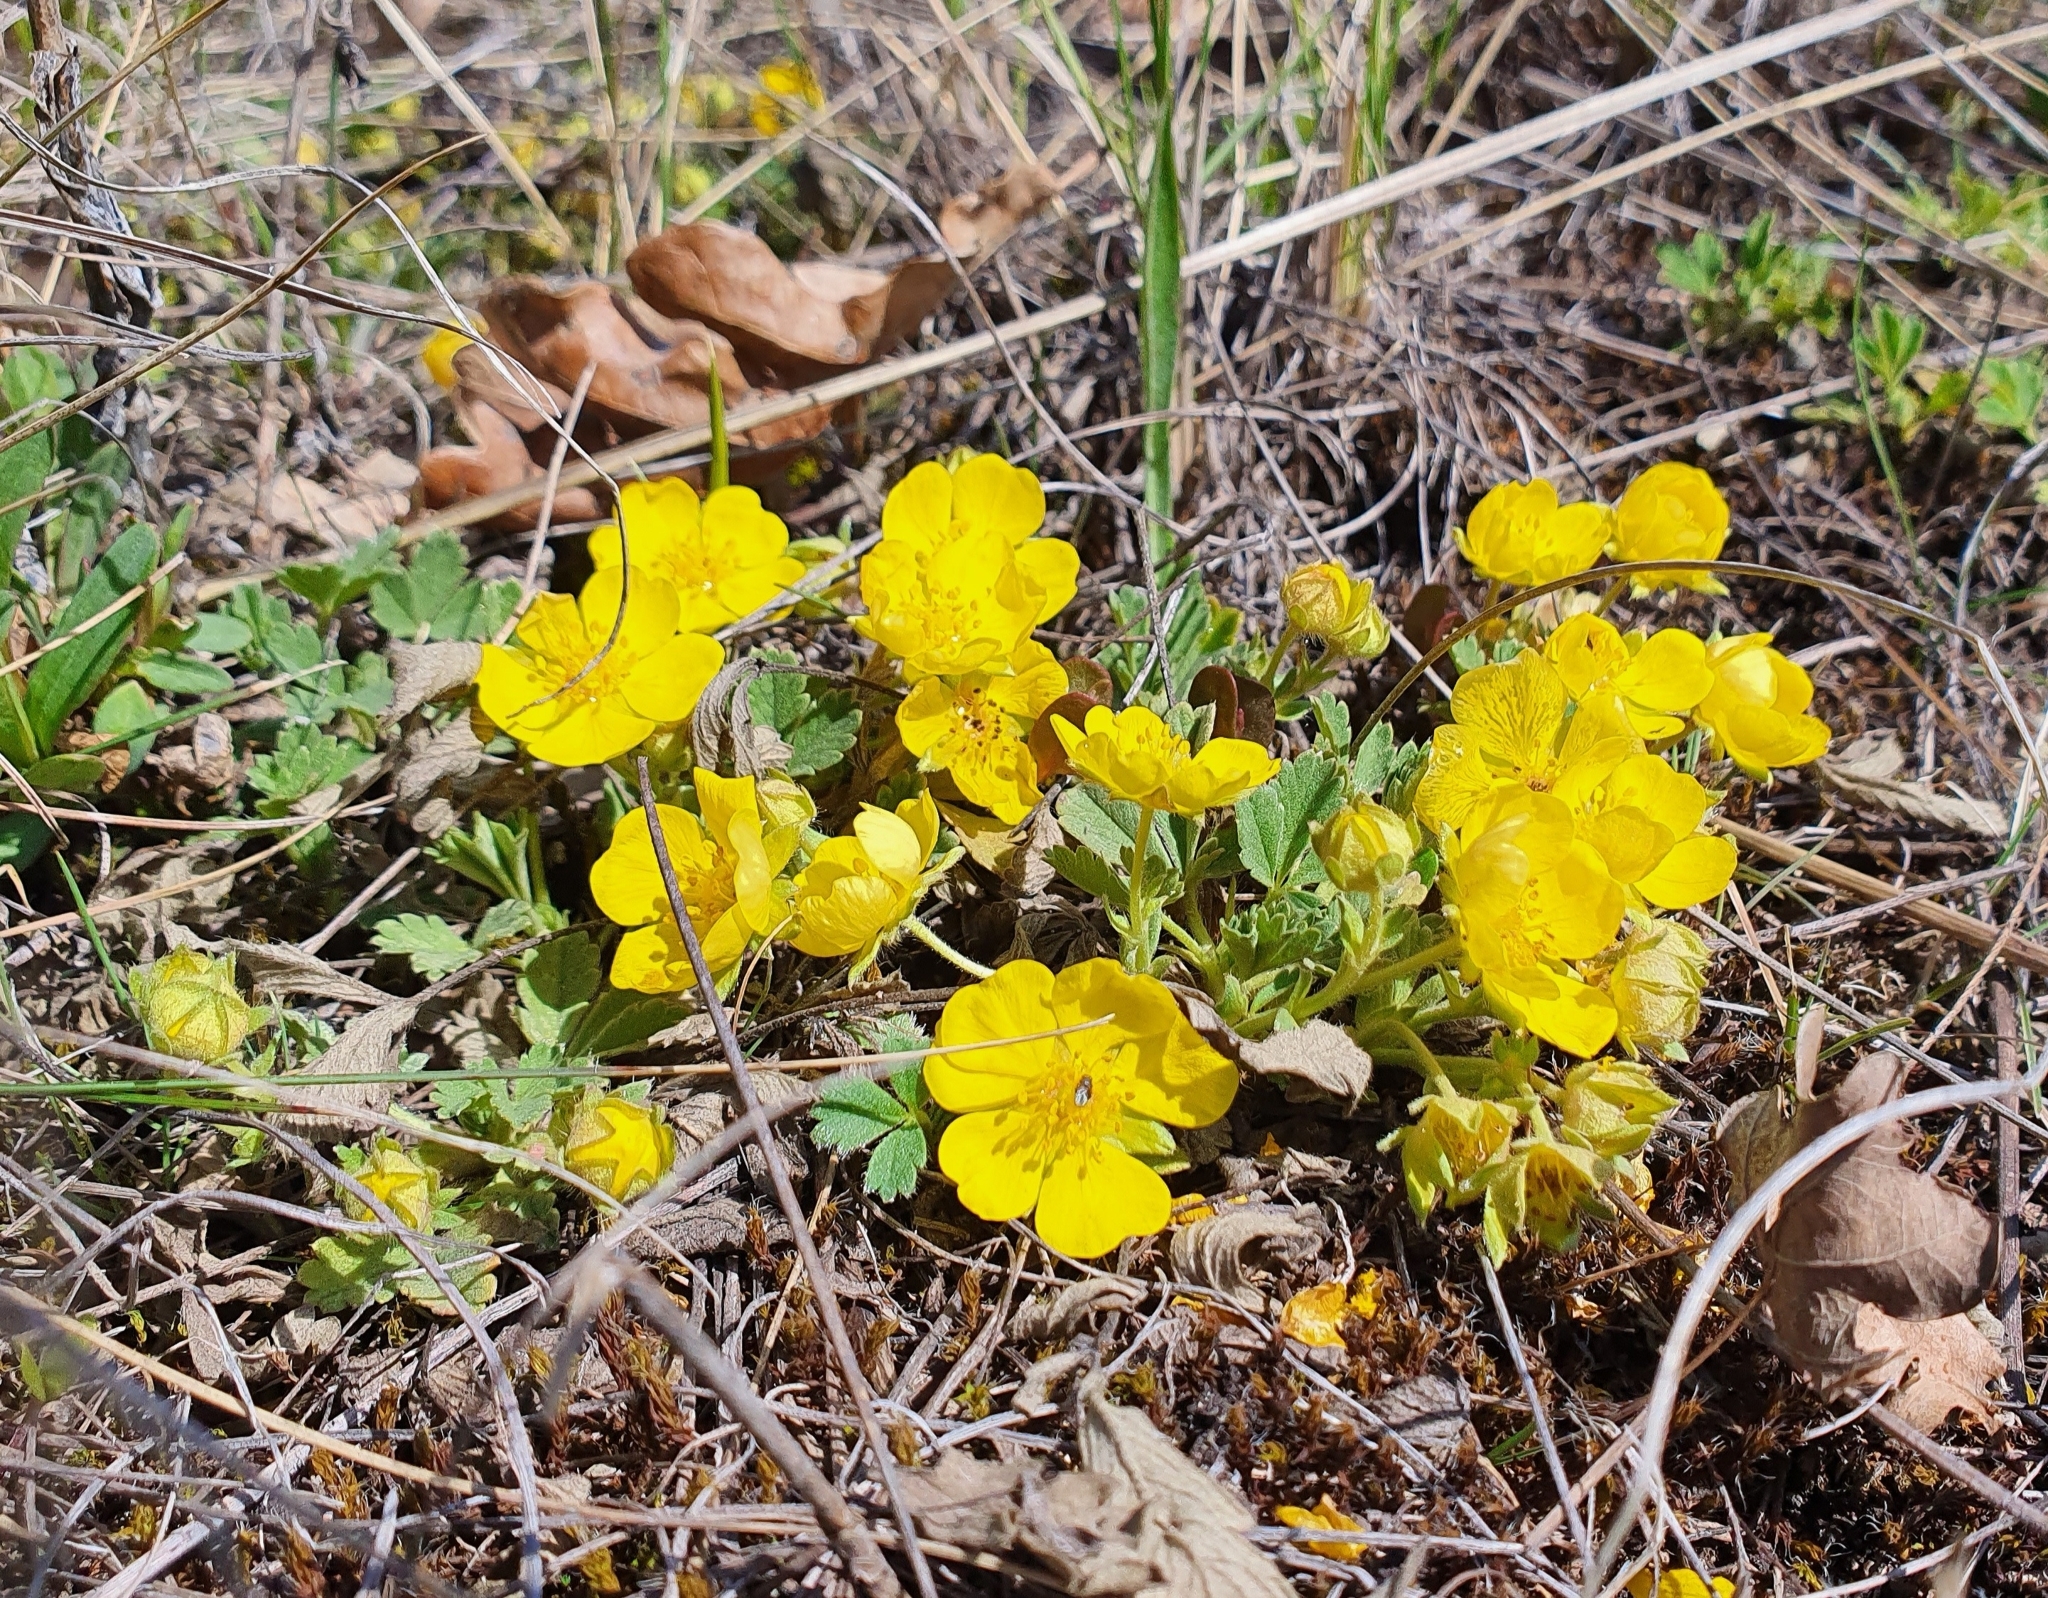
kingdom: Plantae
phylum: Tracheophyta
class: Magnoliopsida
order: Rosales
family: Rosaceae
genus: Potentilla
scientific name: Potentilla incana
